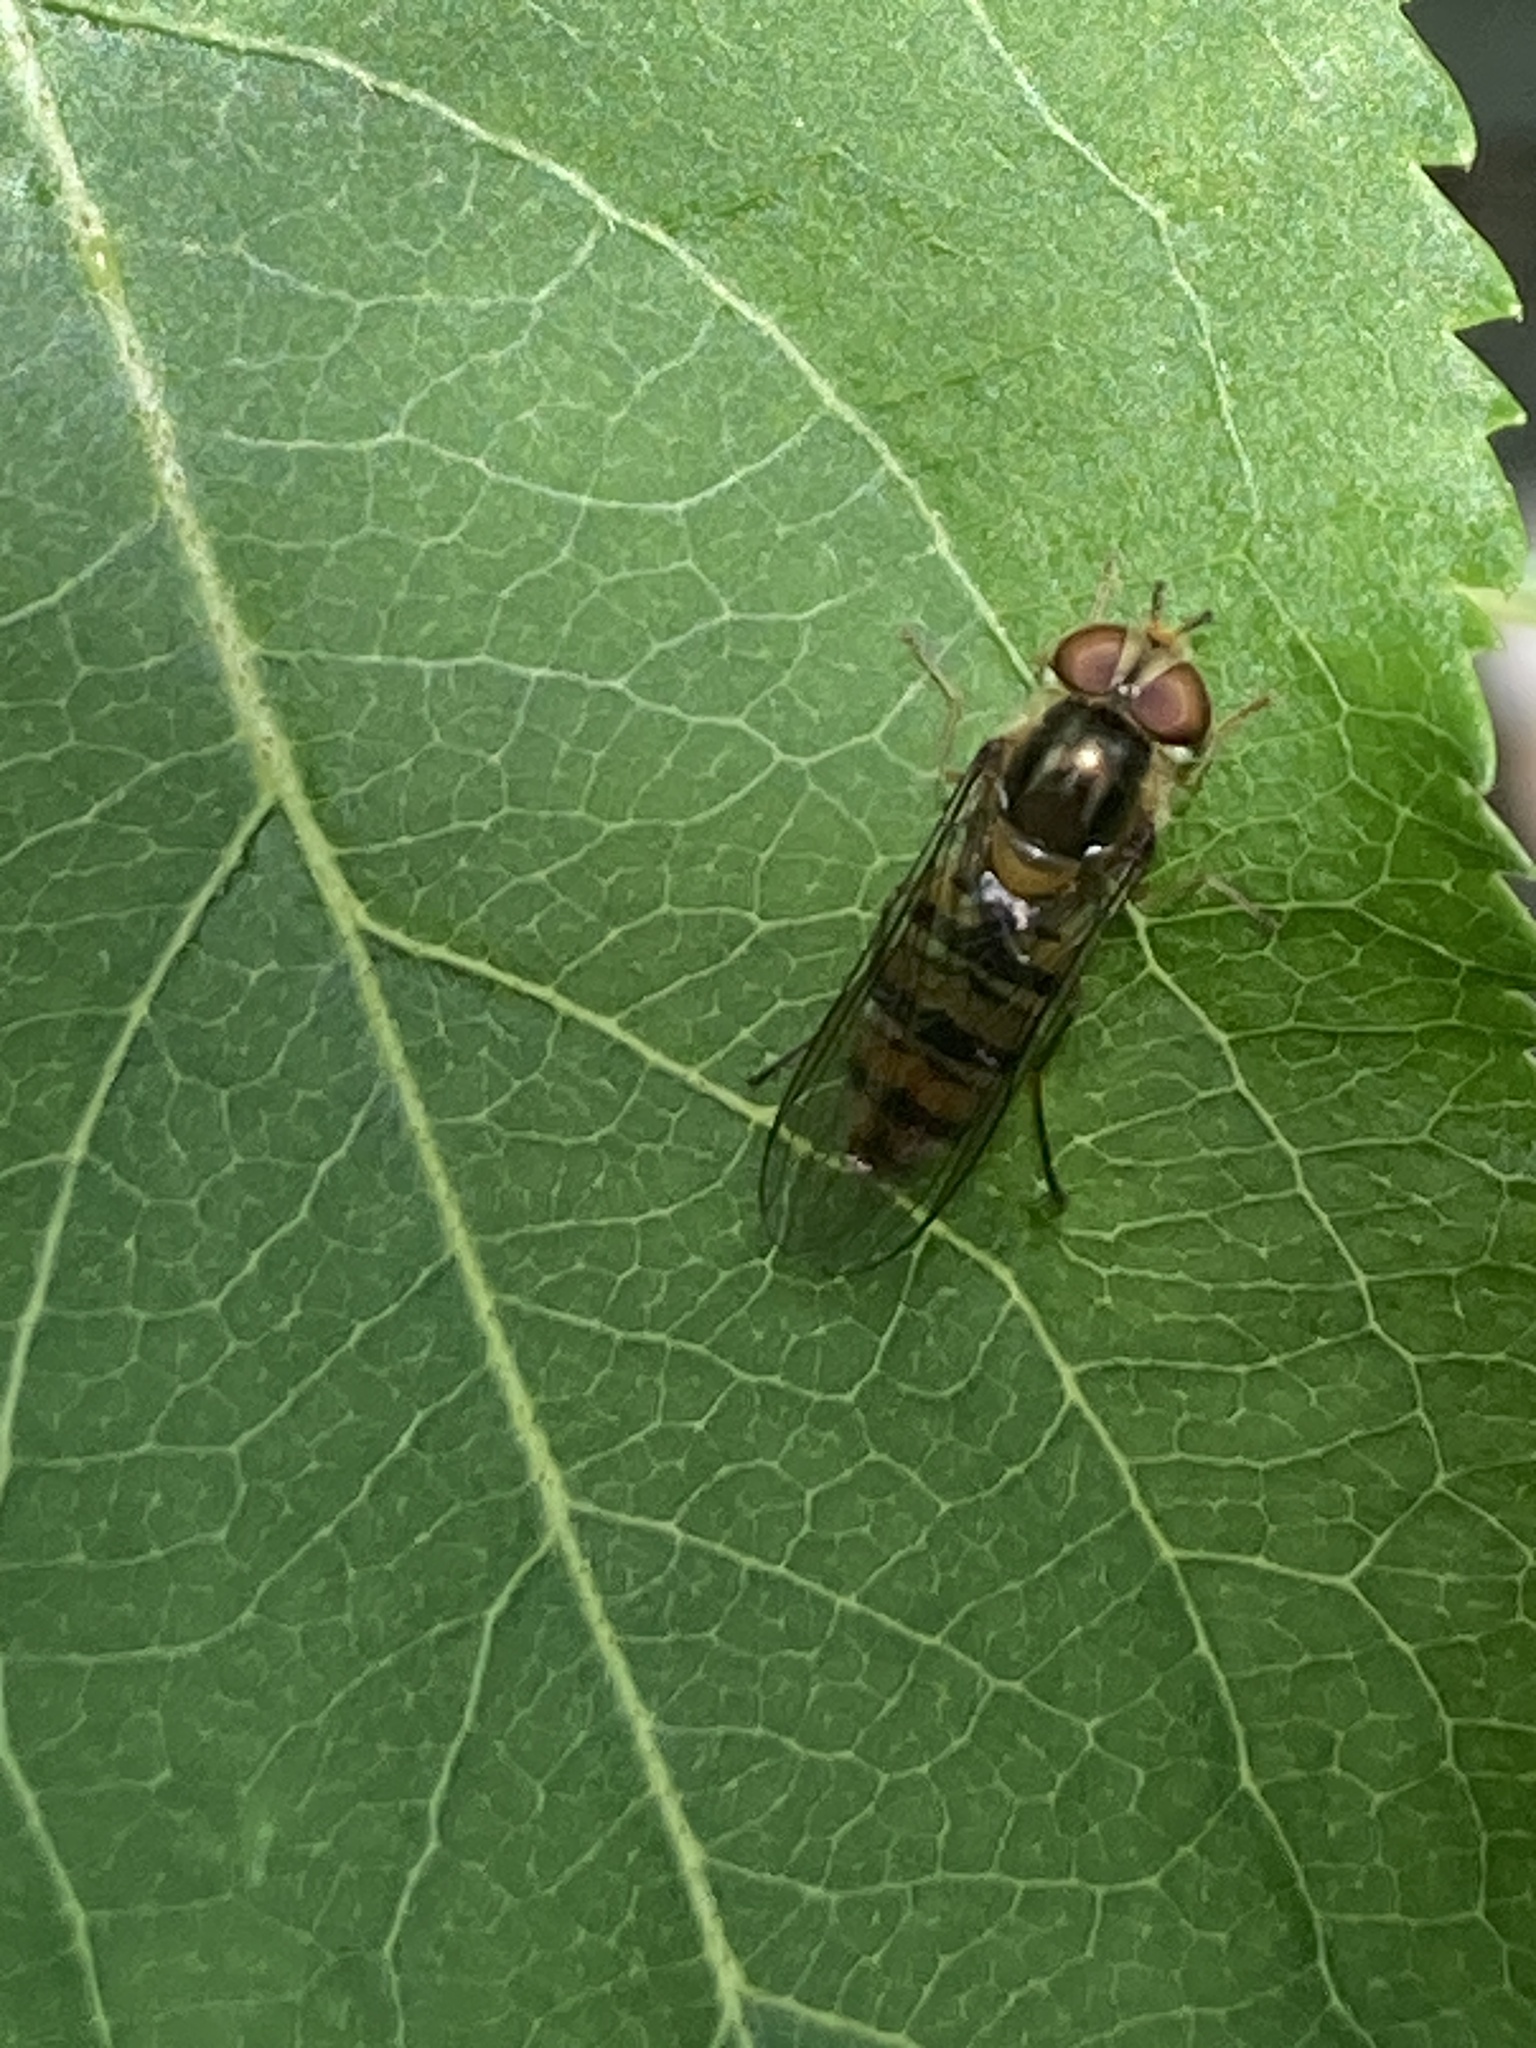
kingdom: Animalia
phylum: Arthropoda
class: Insecta
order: Diptera
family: Syrphidae
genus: Episyrphus
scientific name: Episyrphus balteatus
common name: Marmalade hoverfly
